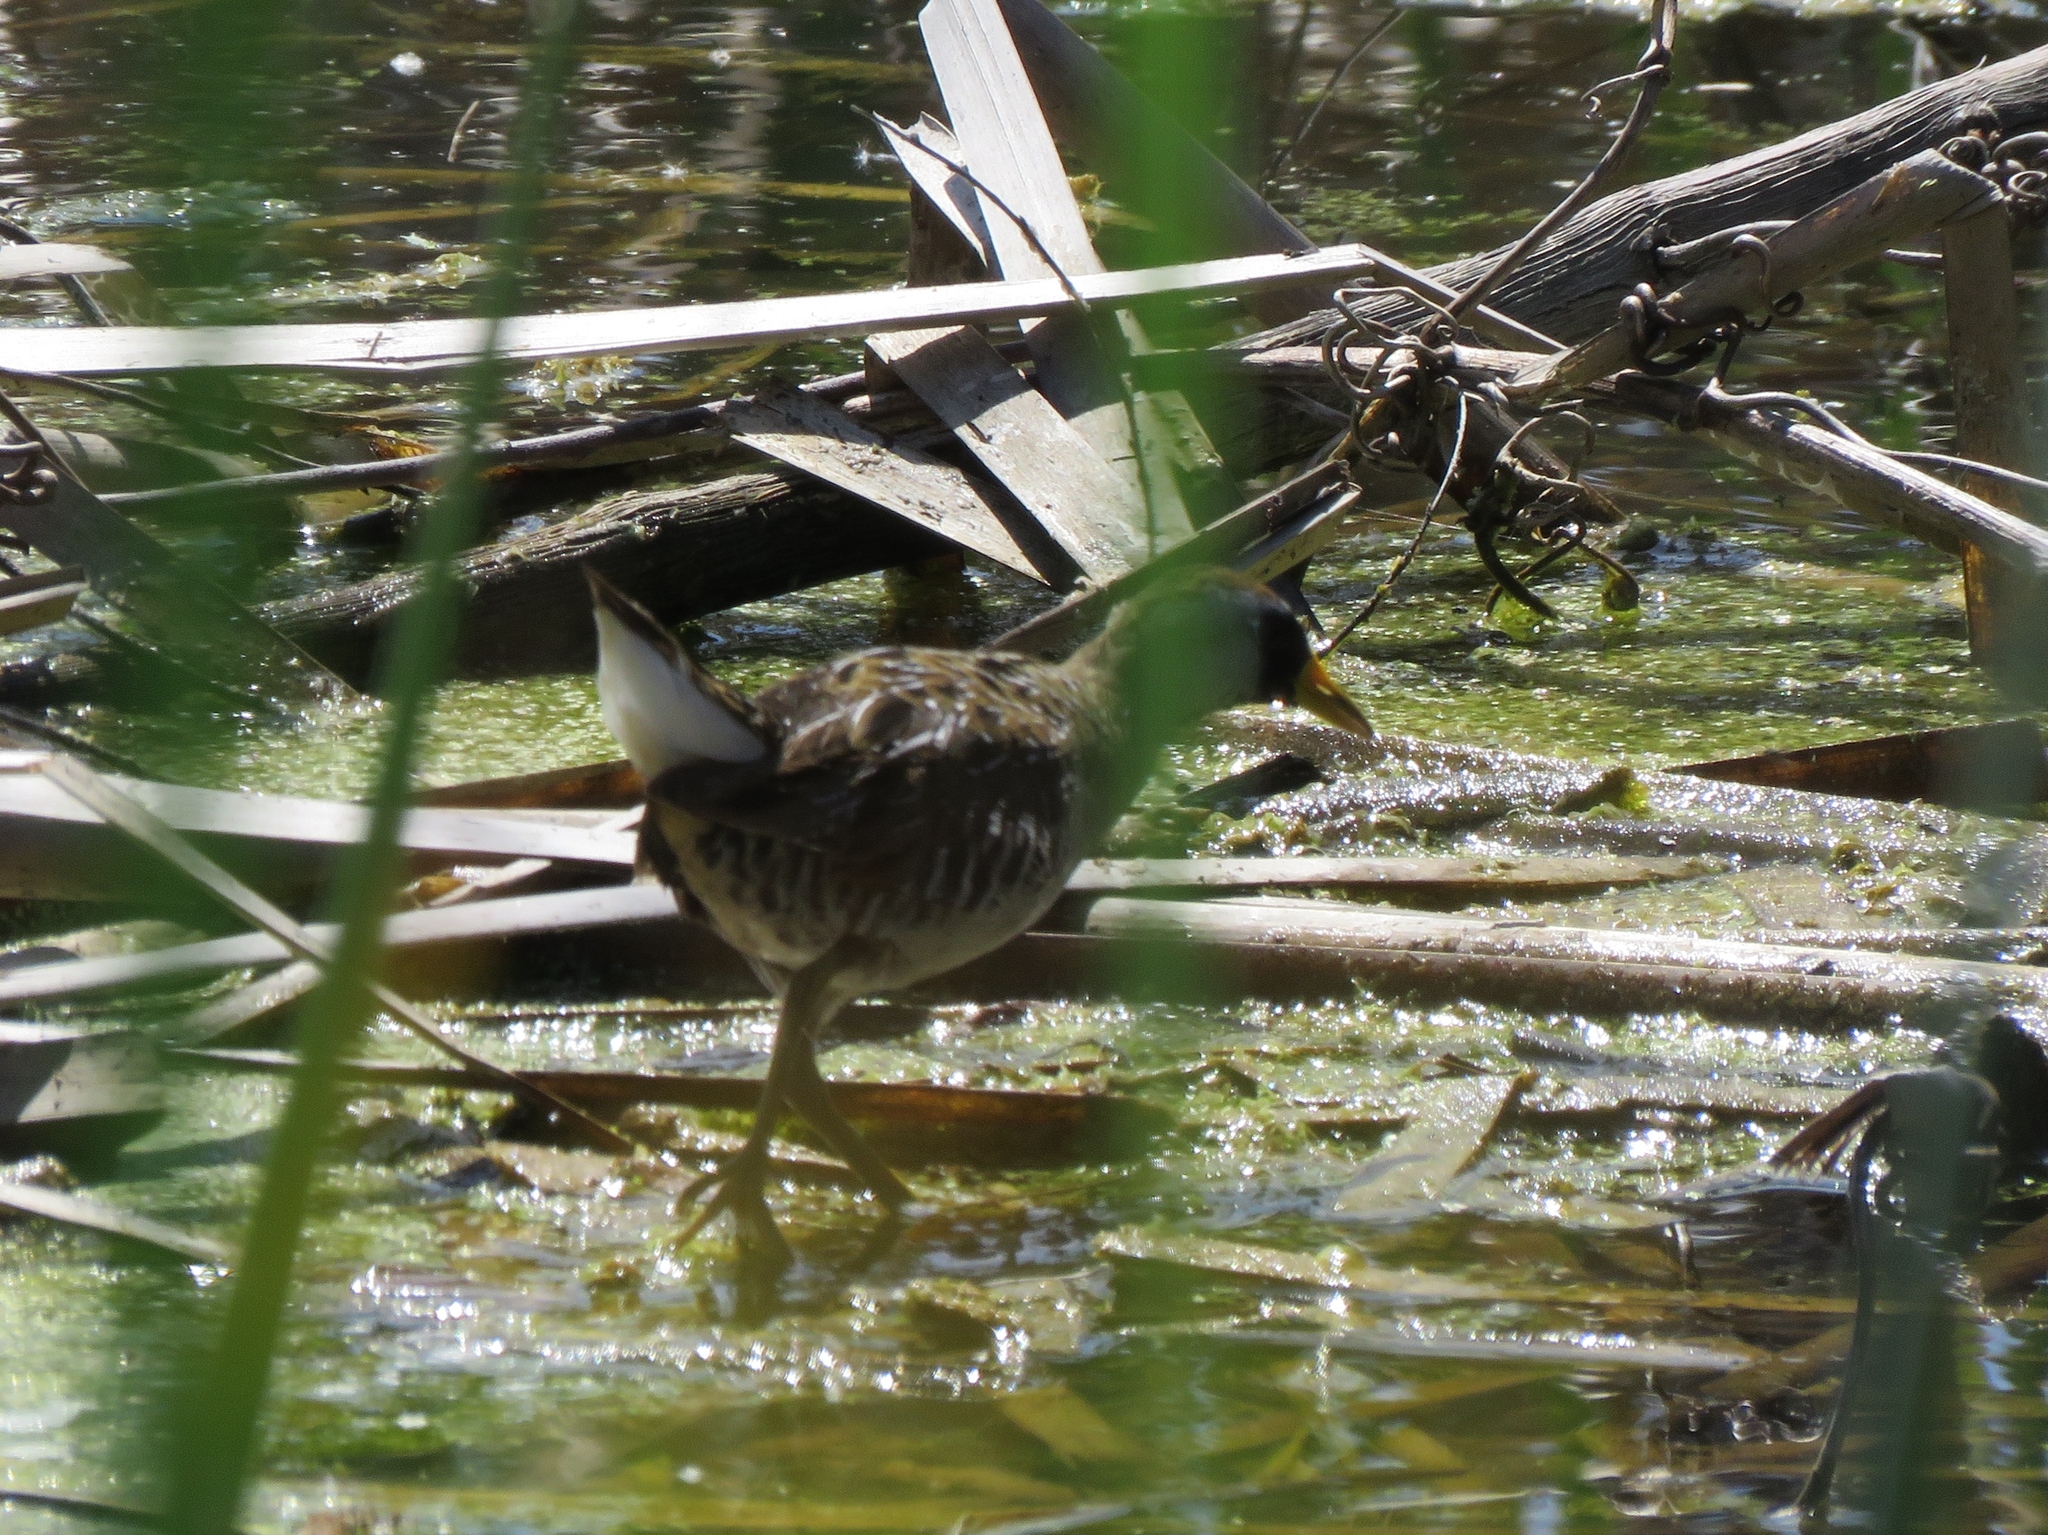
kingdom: Animalia
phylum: Chordata
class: Aves
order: Gruiformes
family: Rallidae
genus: Porzana
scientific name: Porzana carolina
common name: Sora
